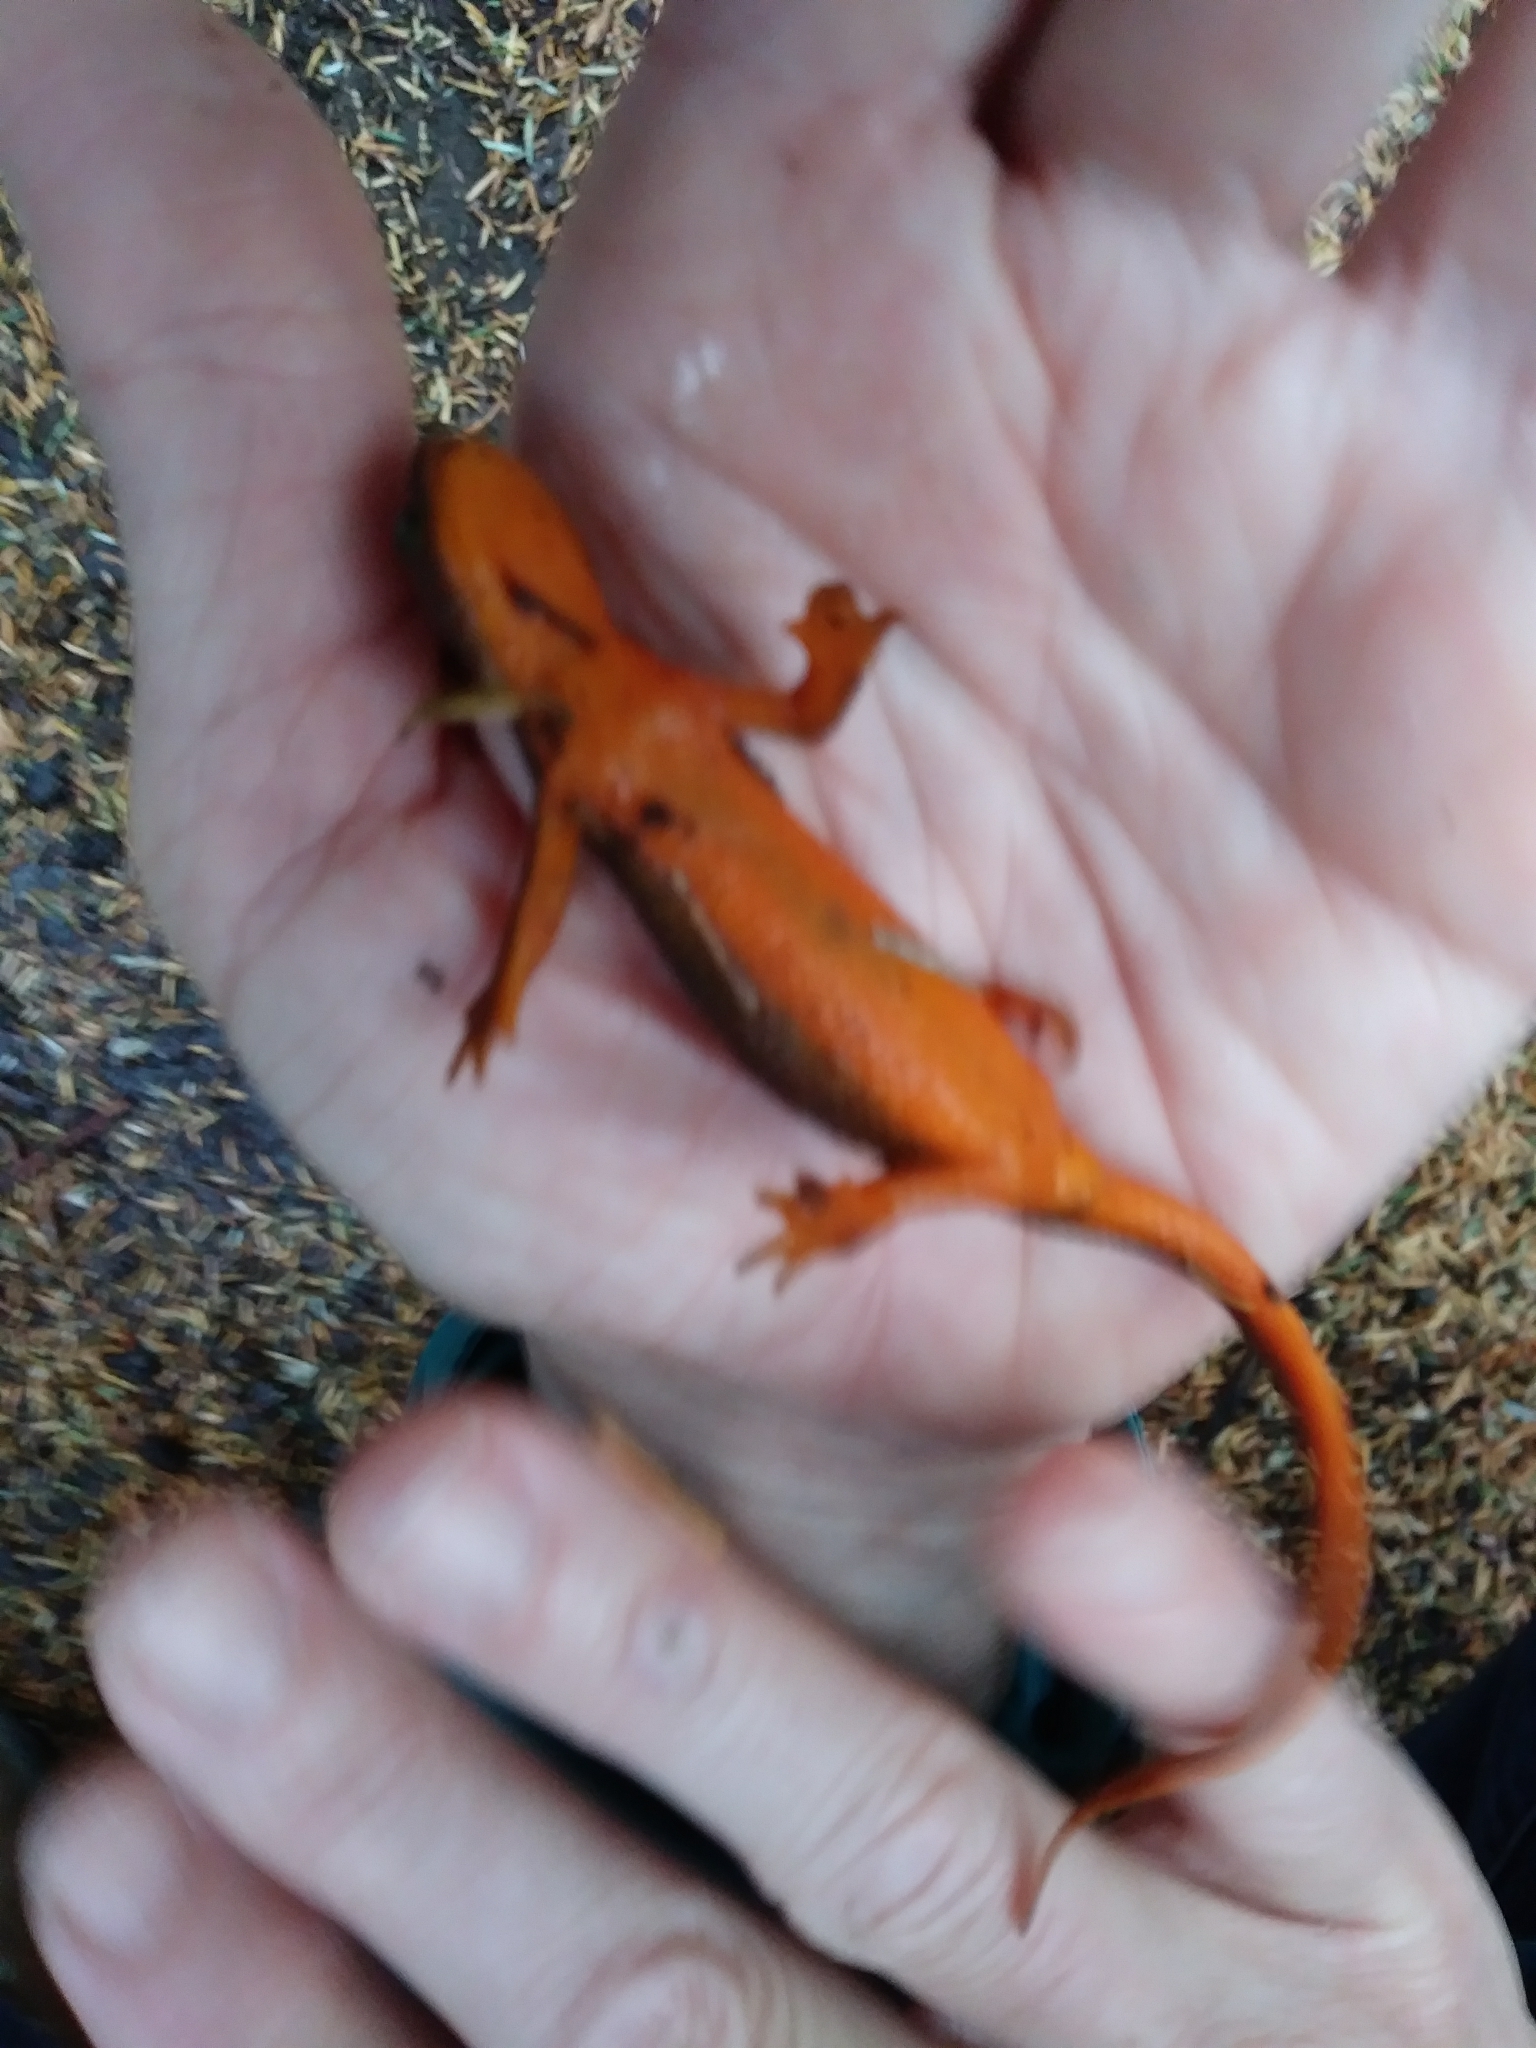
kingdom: Animalia
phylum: Chordata
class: Amphibia
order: Caudata
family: Salamandridae
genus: Taricha
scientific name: Taricha granulosa
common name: Roughskin newt
